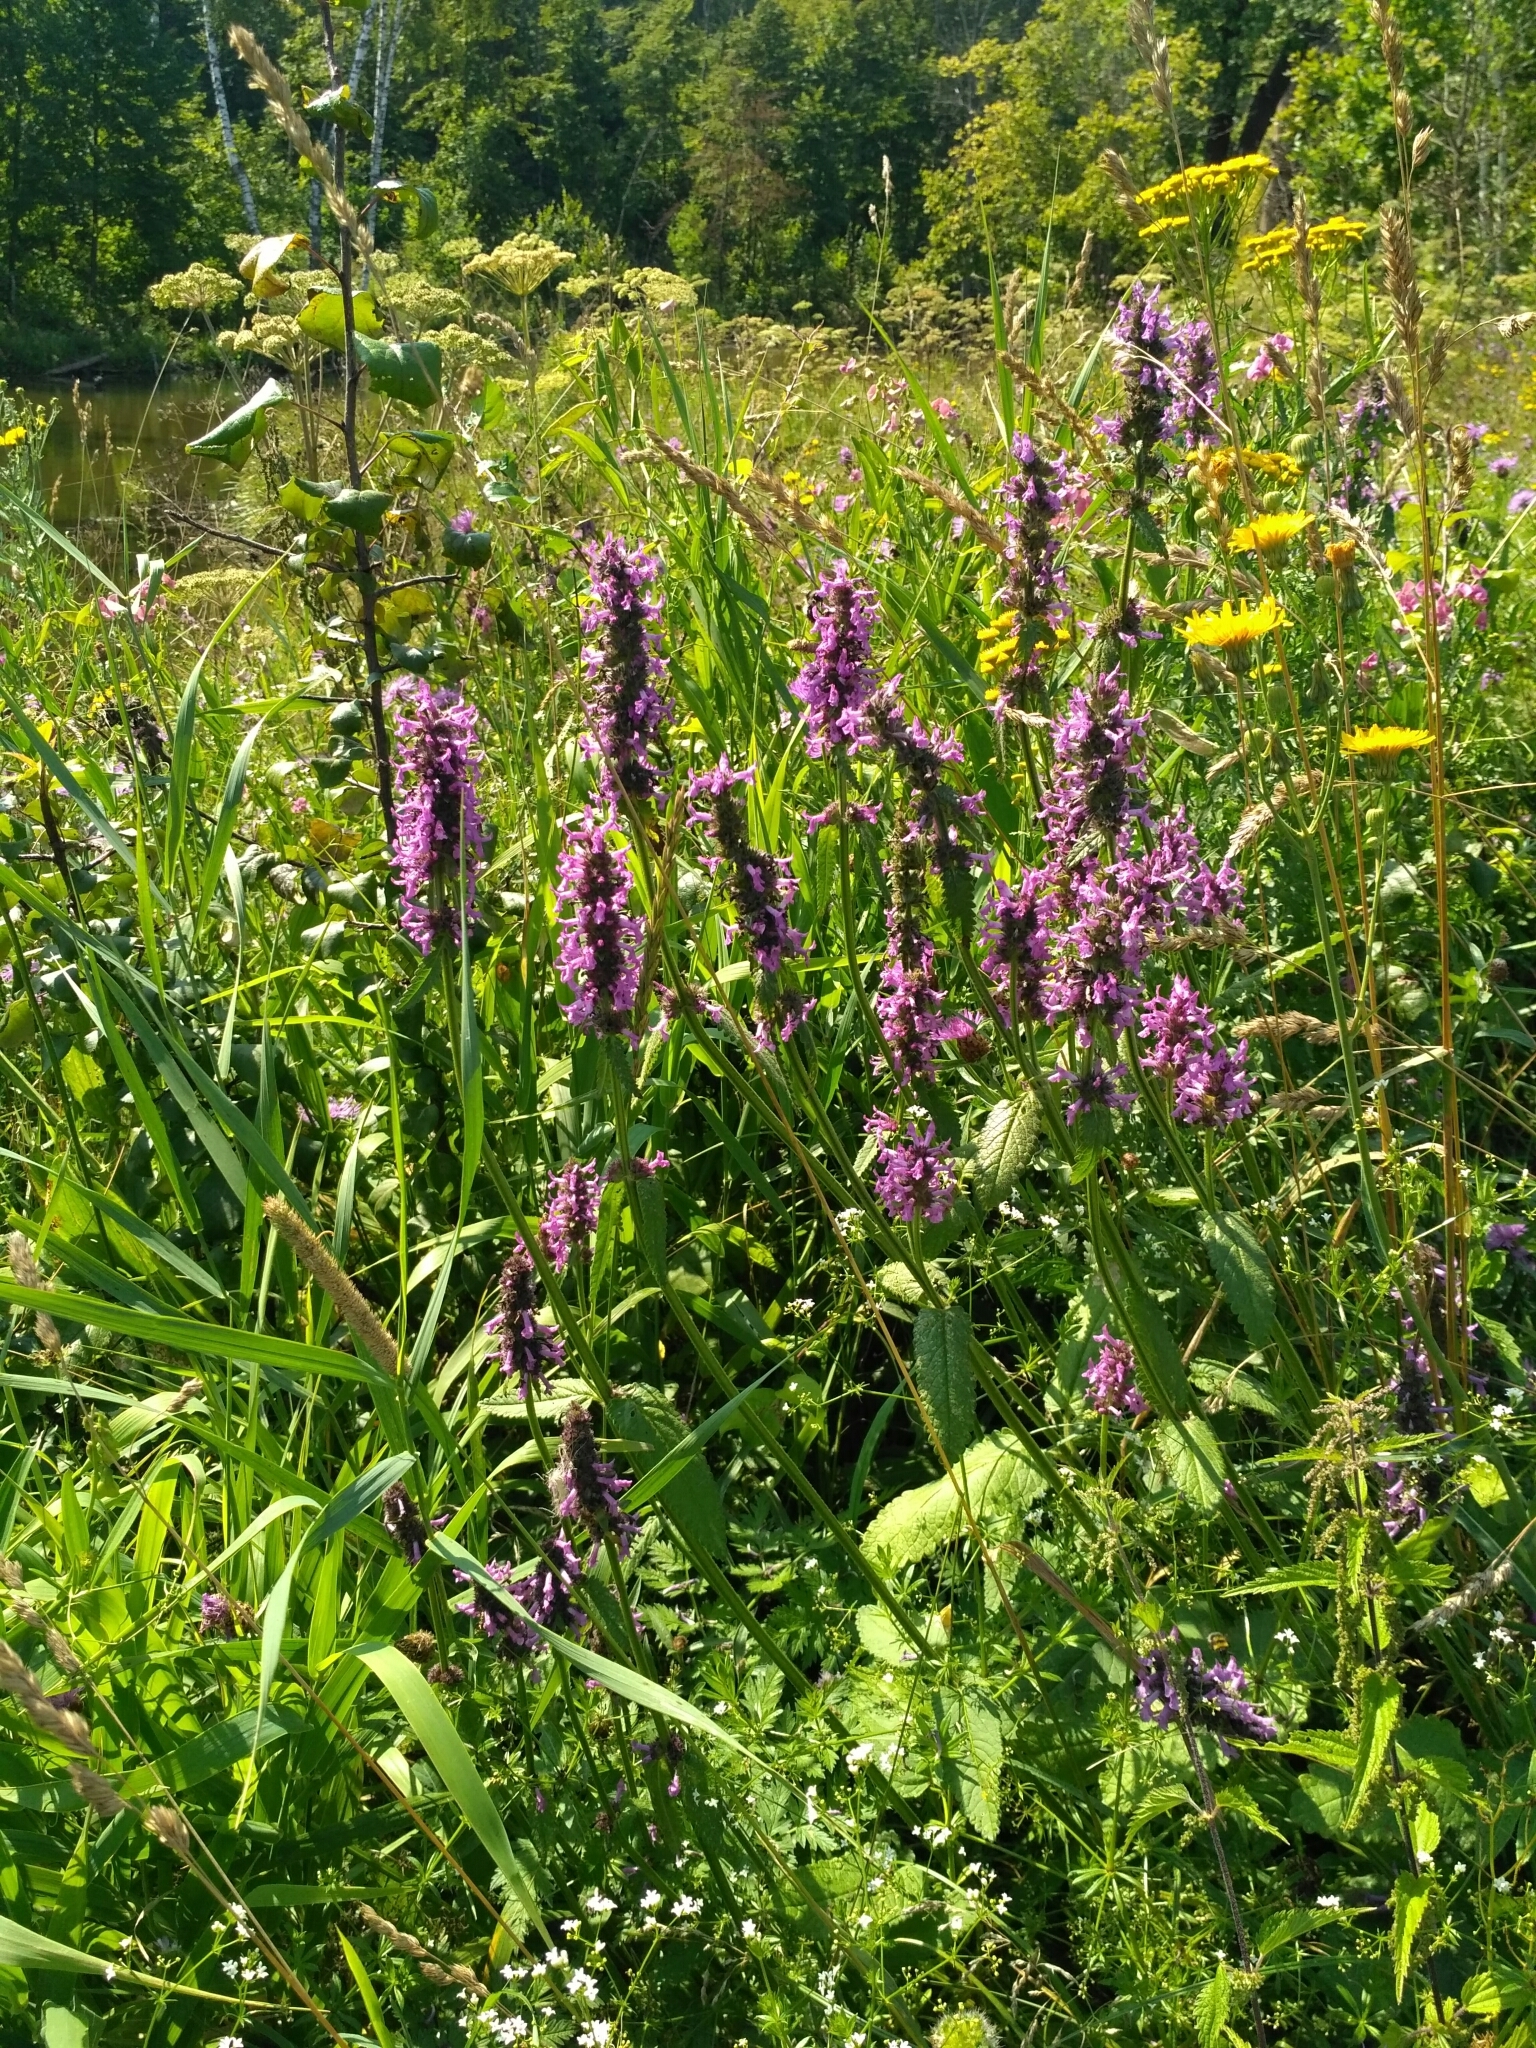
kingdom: Plantae
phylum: Tracheophyta
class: Magnoliopsida
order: Lamiales
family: Lamiaceae
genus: Betonica
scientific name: Betonica officinalis
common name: Bishop's-wort
